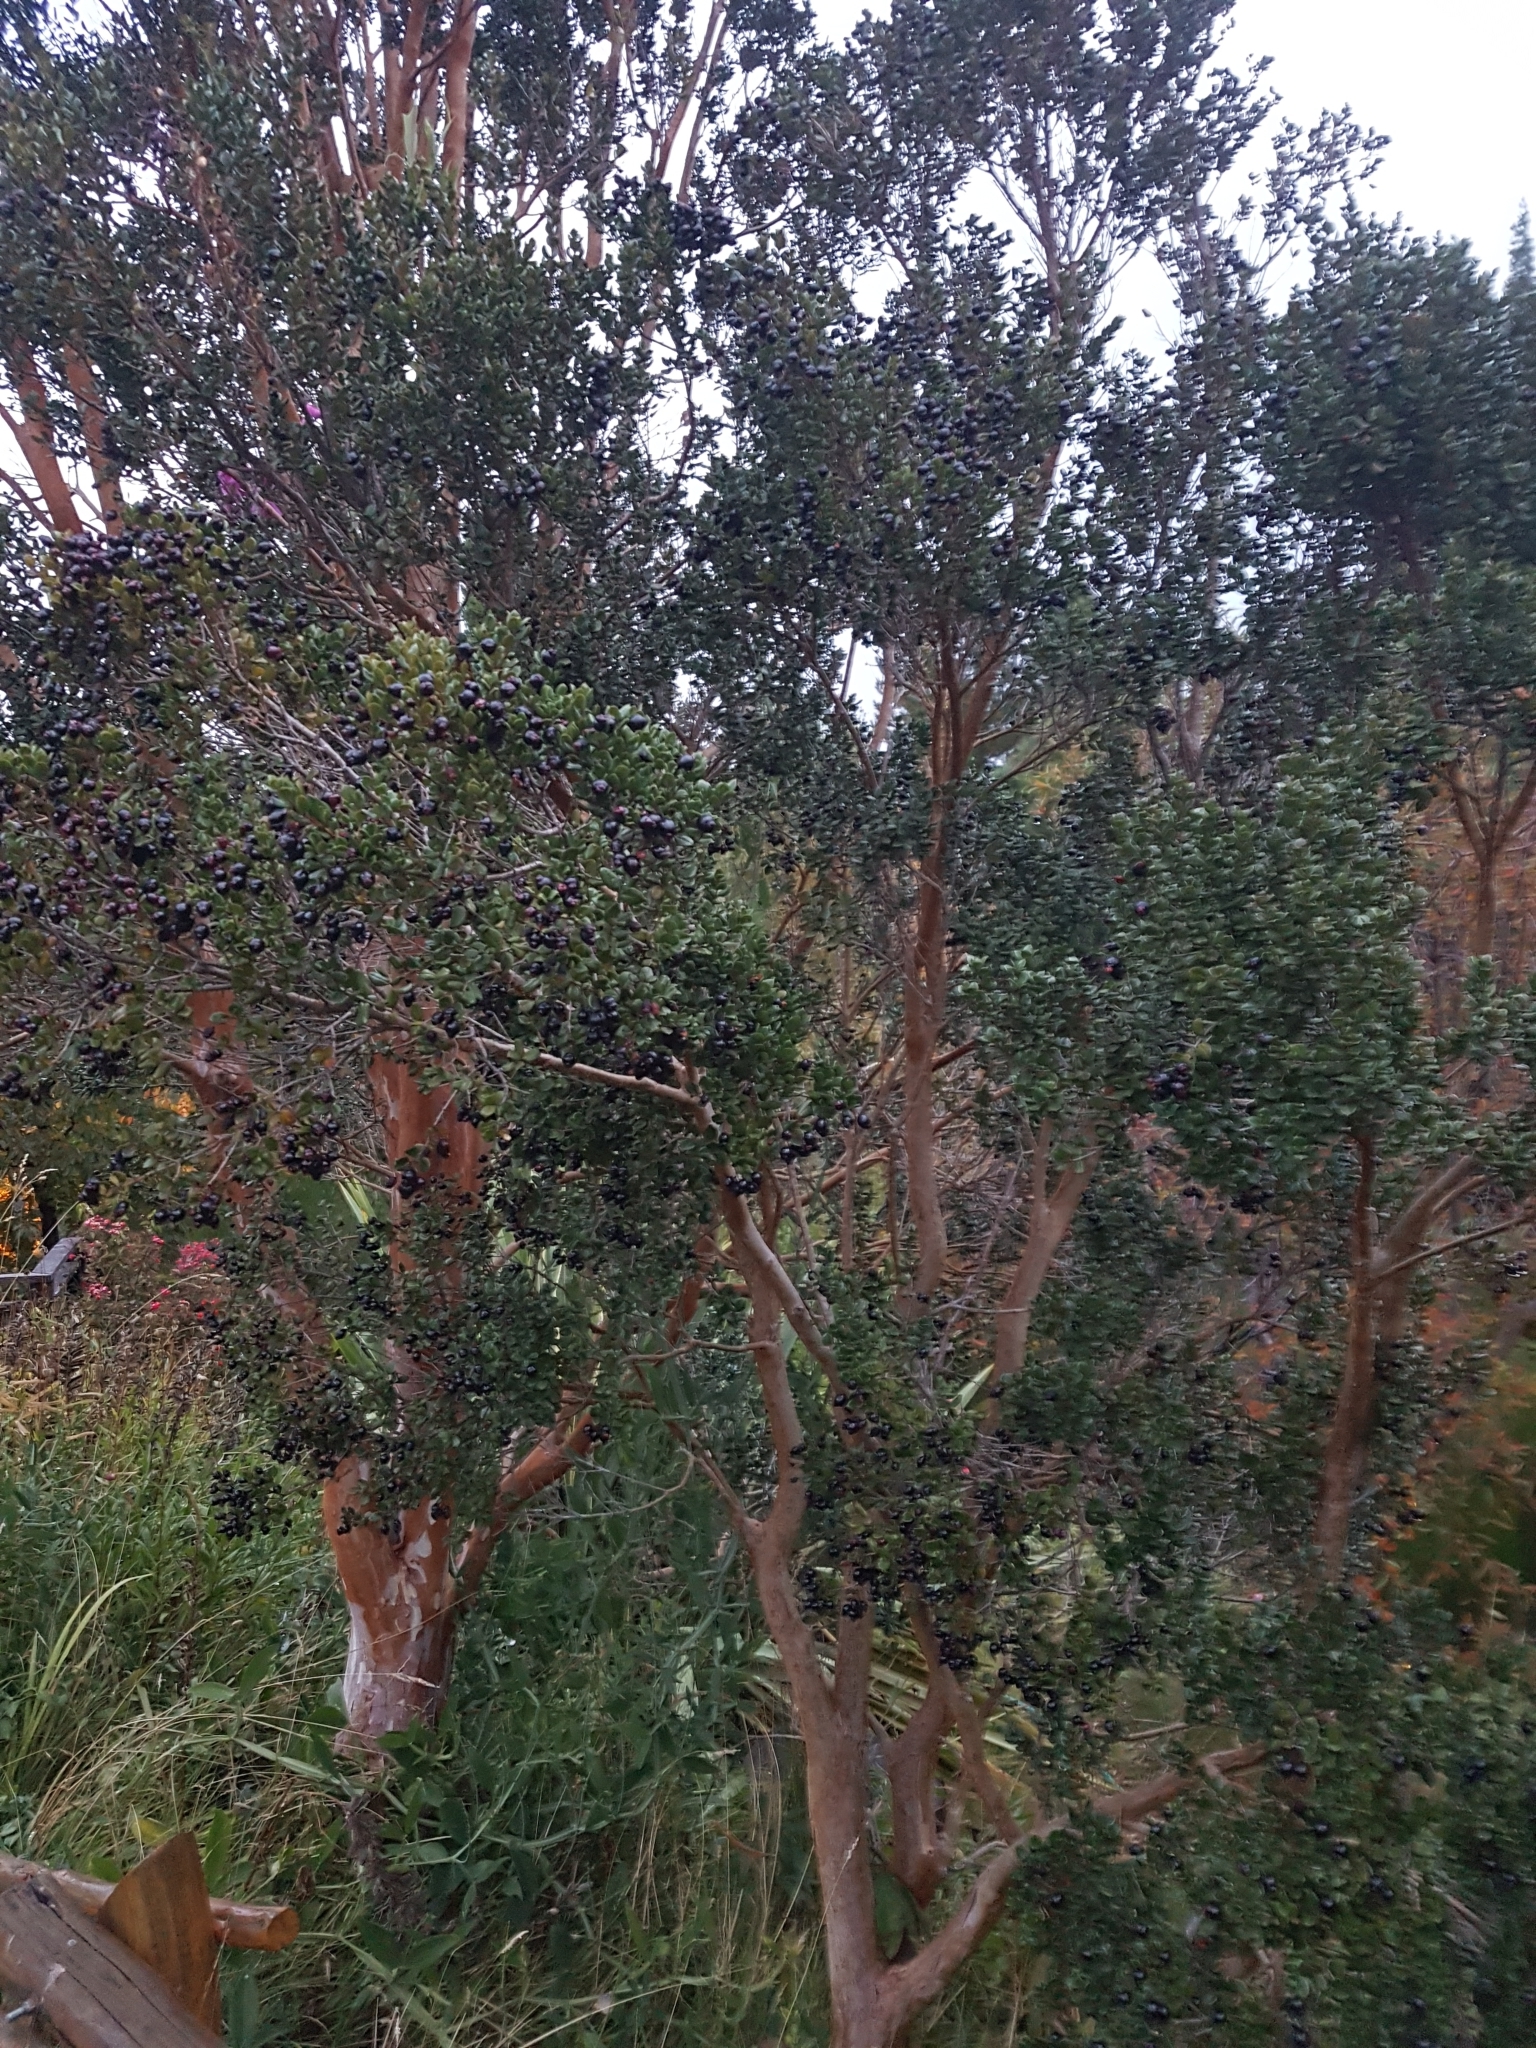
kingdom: Plantae
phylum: Tracheophyta
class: Magnoliopsida
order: Myrtales
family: Myrtaceae
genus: Luma
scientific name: Luma apiculata
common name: Chilean myrtle
